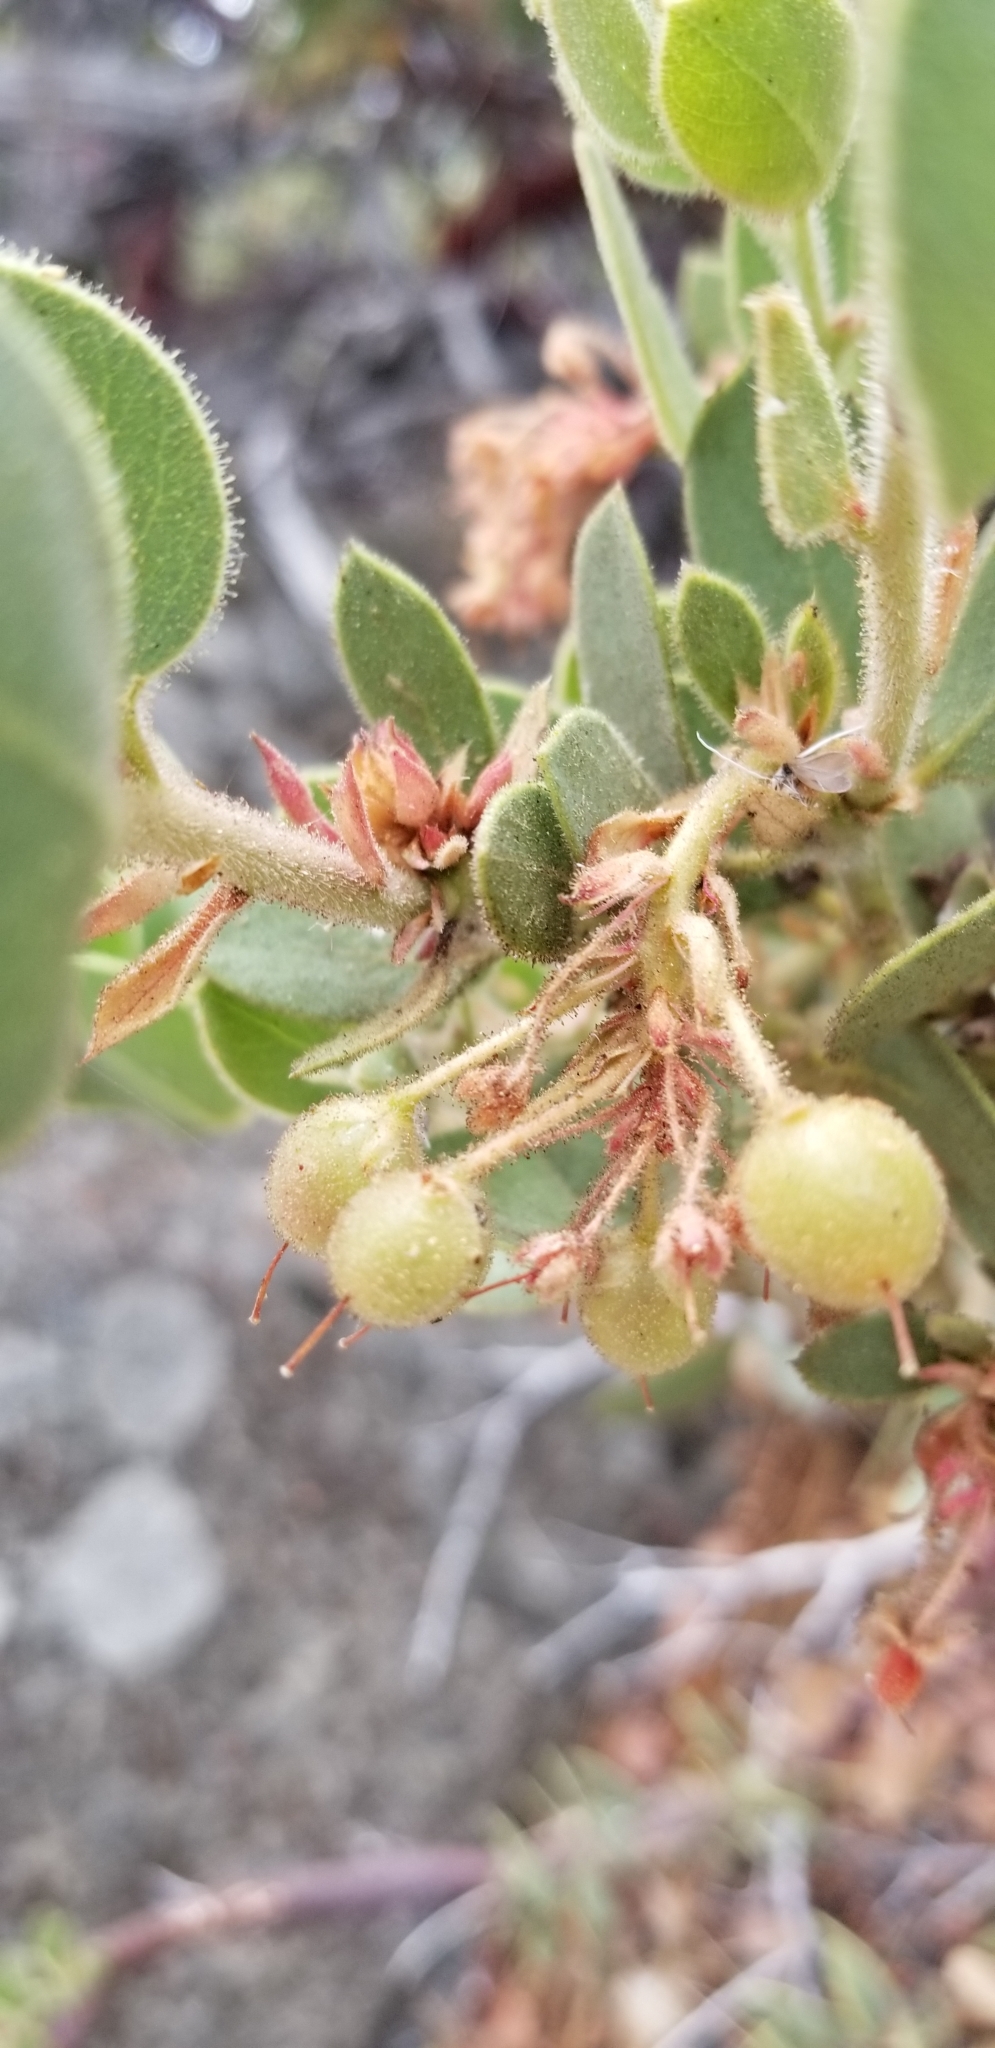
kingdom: Plantae
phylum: Tracheophyta
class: Magnoliopsida
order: Ericales
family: Ericaceae
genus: Arctostaphylos
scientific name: Arctostaphylos pringlei
